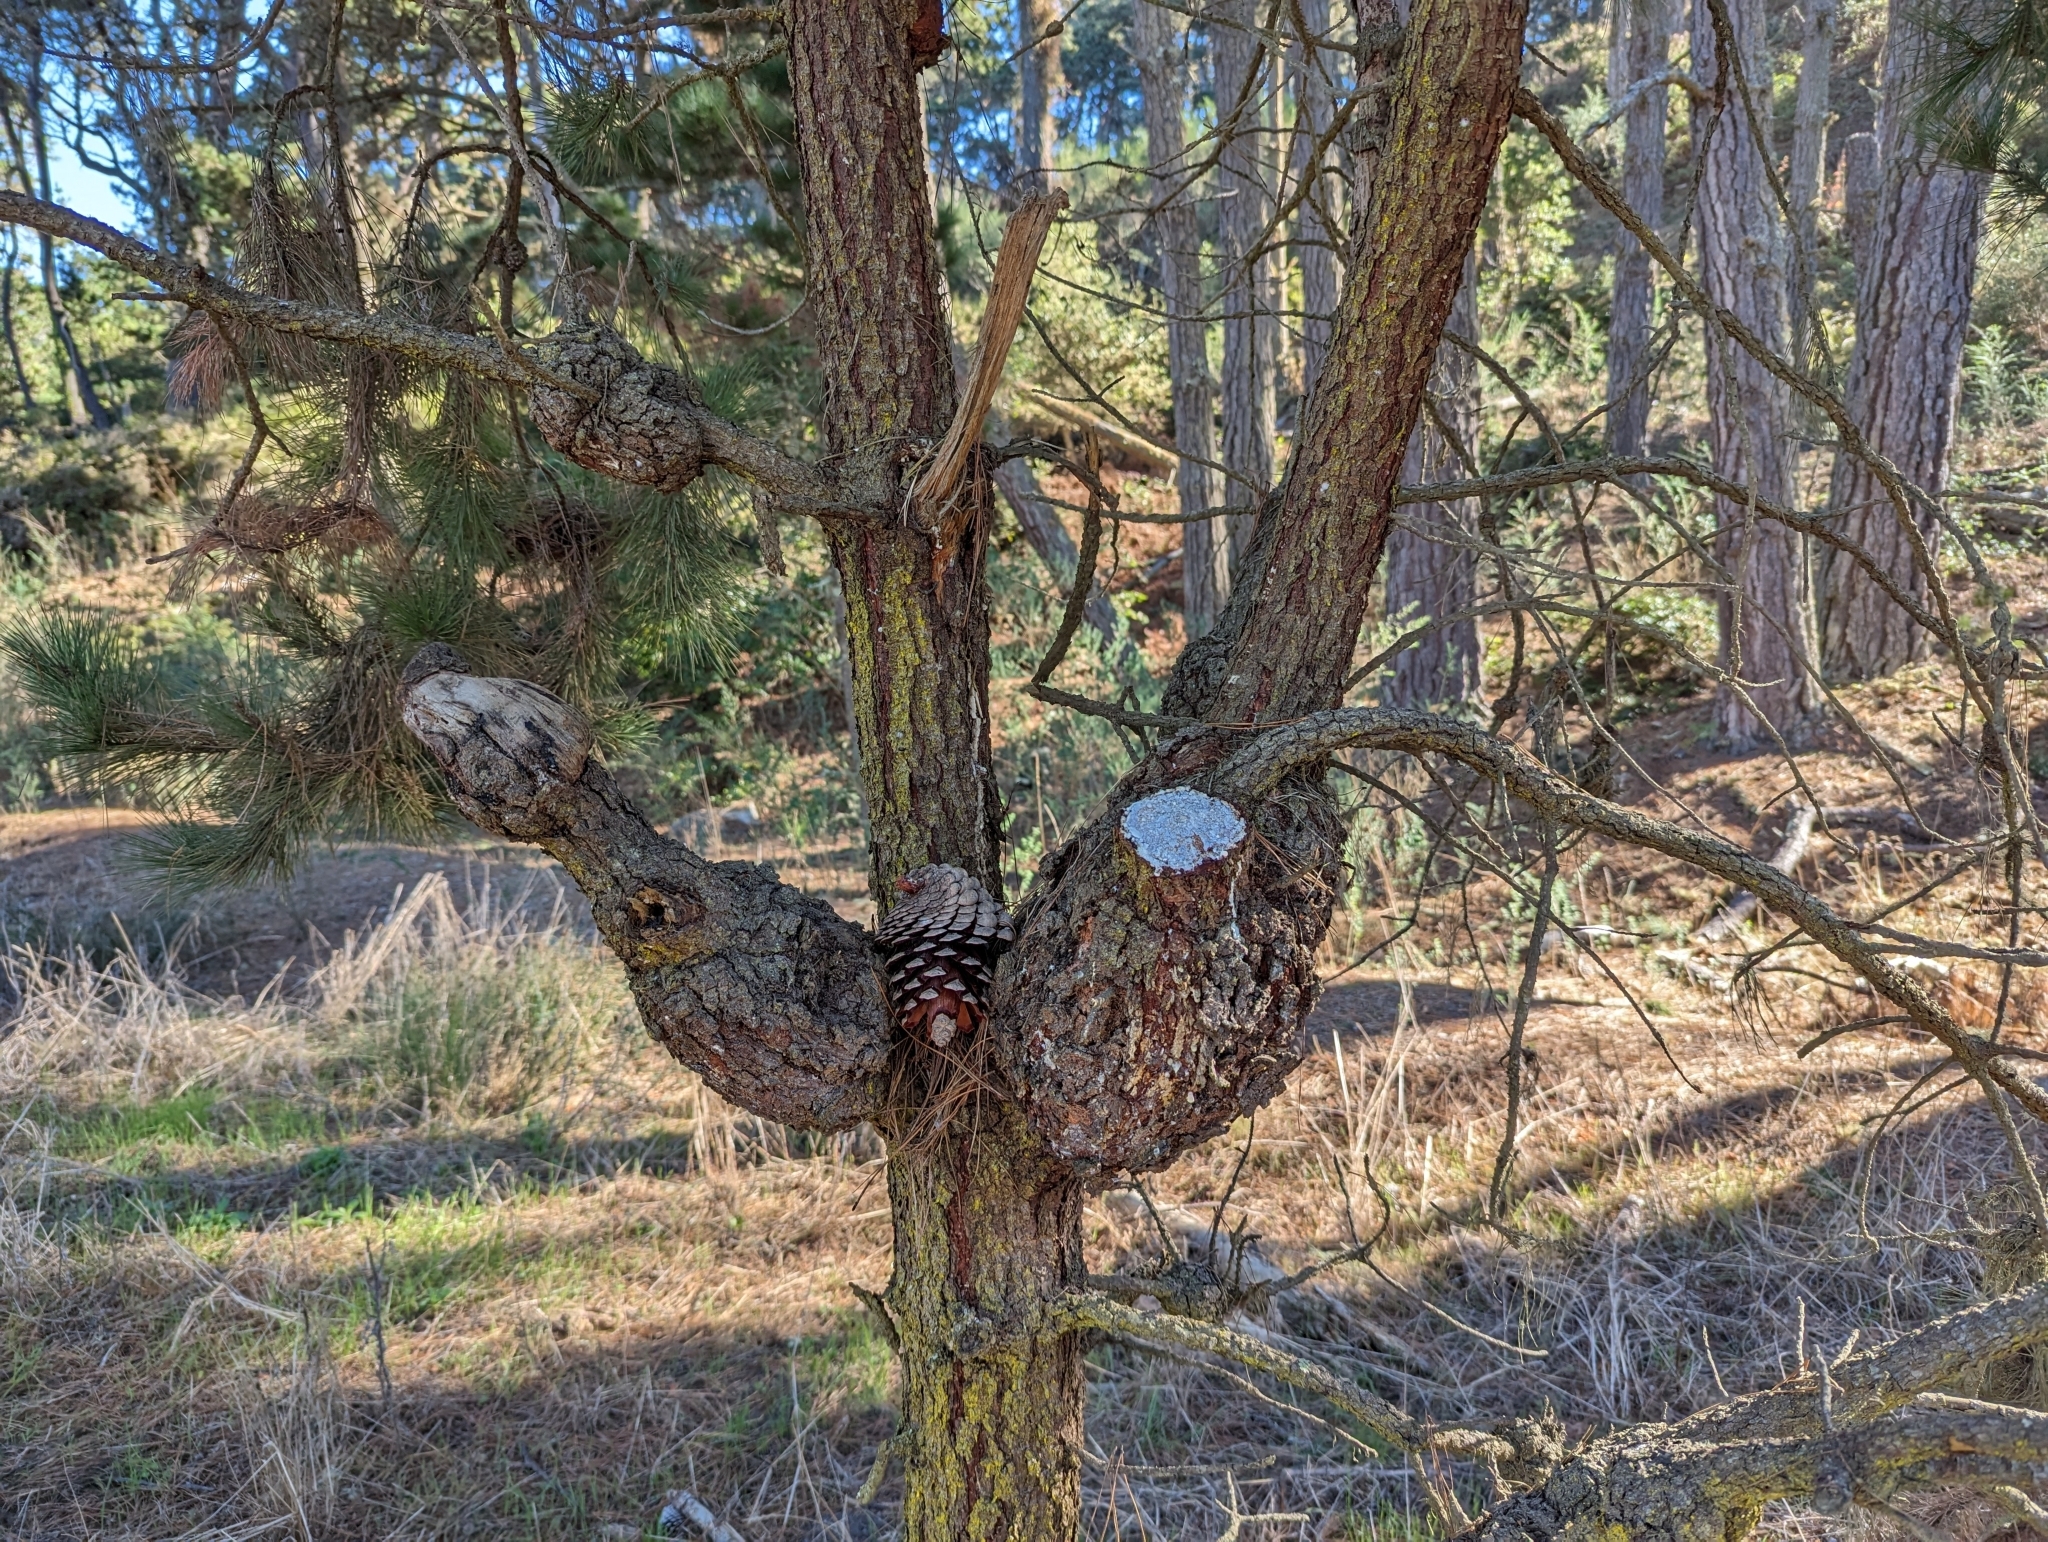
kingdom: Fungi
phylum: Basidiomycota
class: Pucciniomycetes
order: Pucciniales
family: Cronartiaceae
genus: Cronartium
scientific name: Cronartium harknessii
